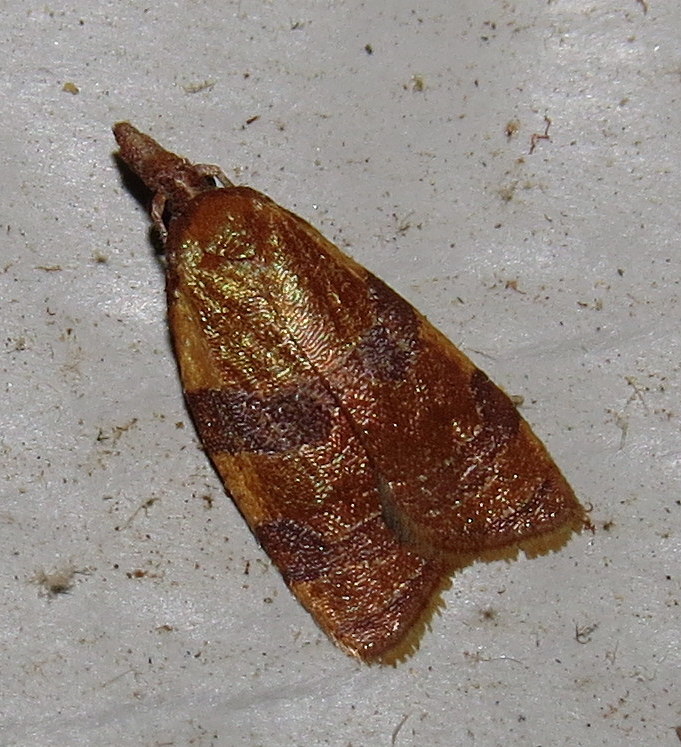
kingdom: Animalia
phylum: Arthropoda
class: Insecta
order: Lepidoptera
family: Tortricidae
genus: Cenopis
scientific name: Cenopis diluticostana
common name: Spring dead-leaf roller moth
